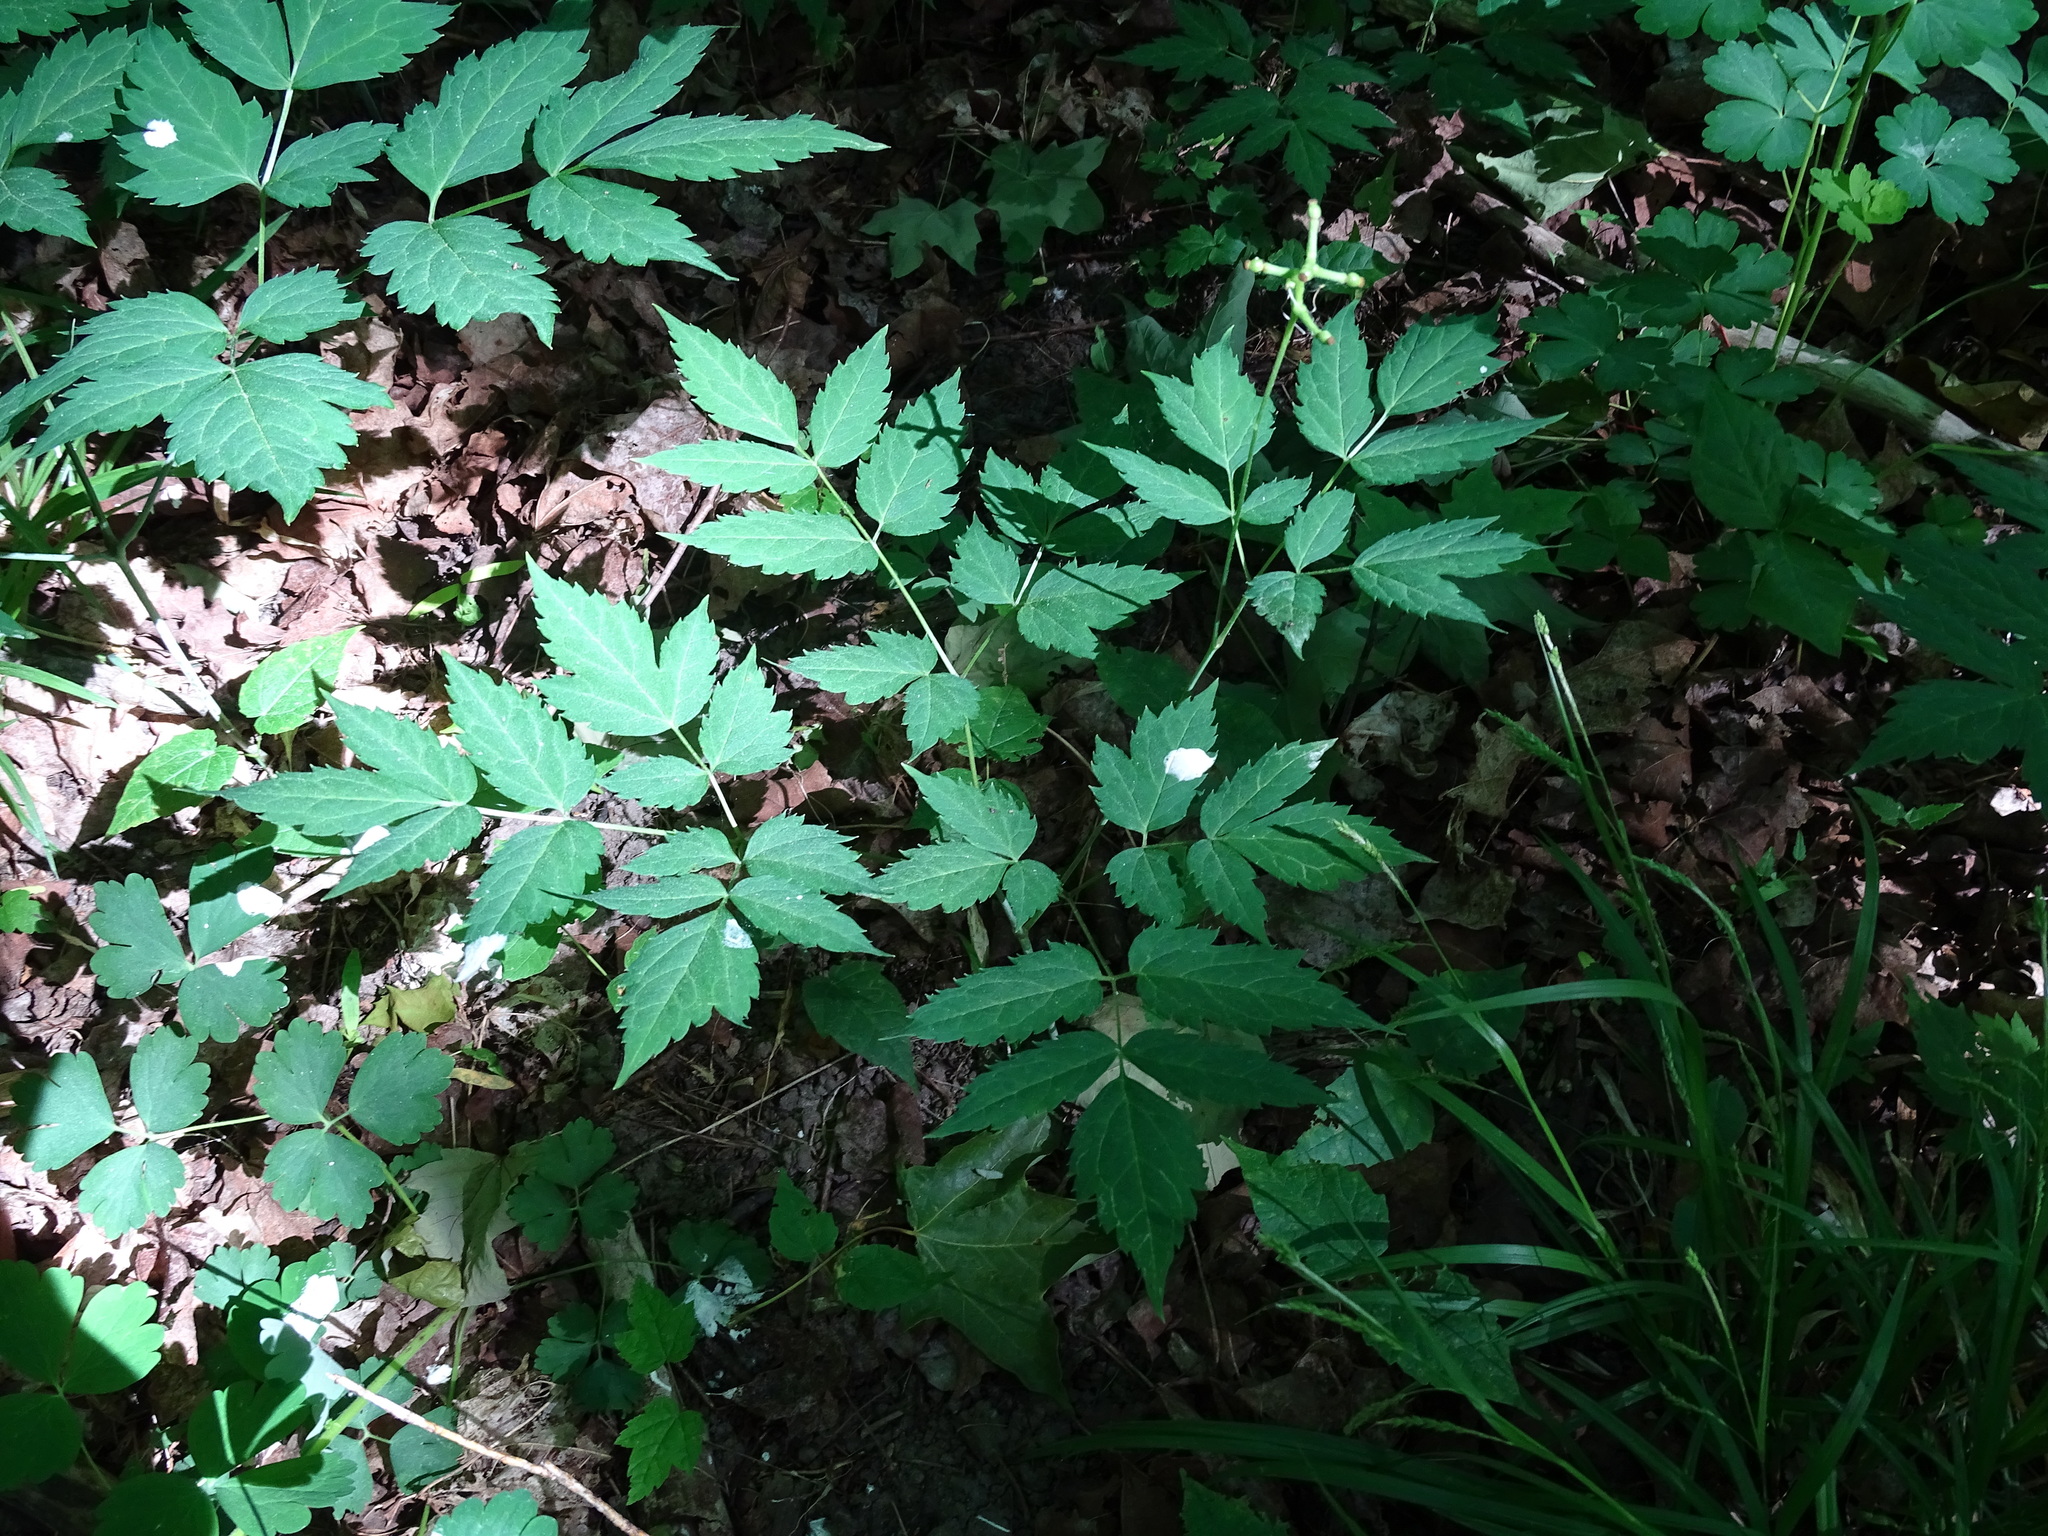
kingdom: Plantae
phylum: Tracheophyta
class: Magnoliopsida
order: Ranunculales
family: Ranunculaceae
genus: Actaea
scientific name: Actaea pachypoda
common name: Doll's-eyes
